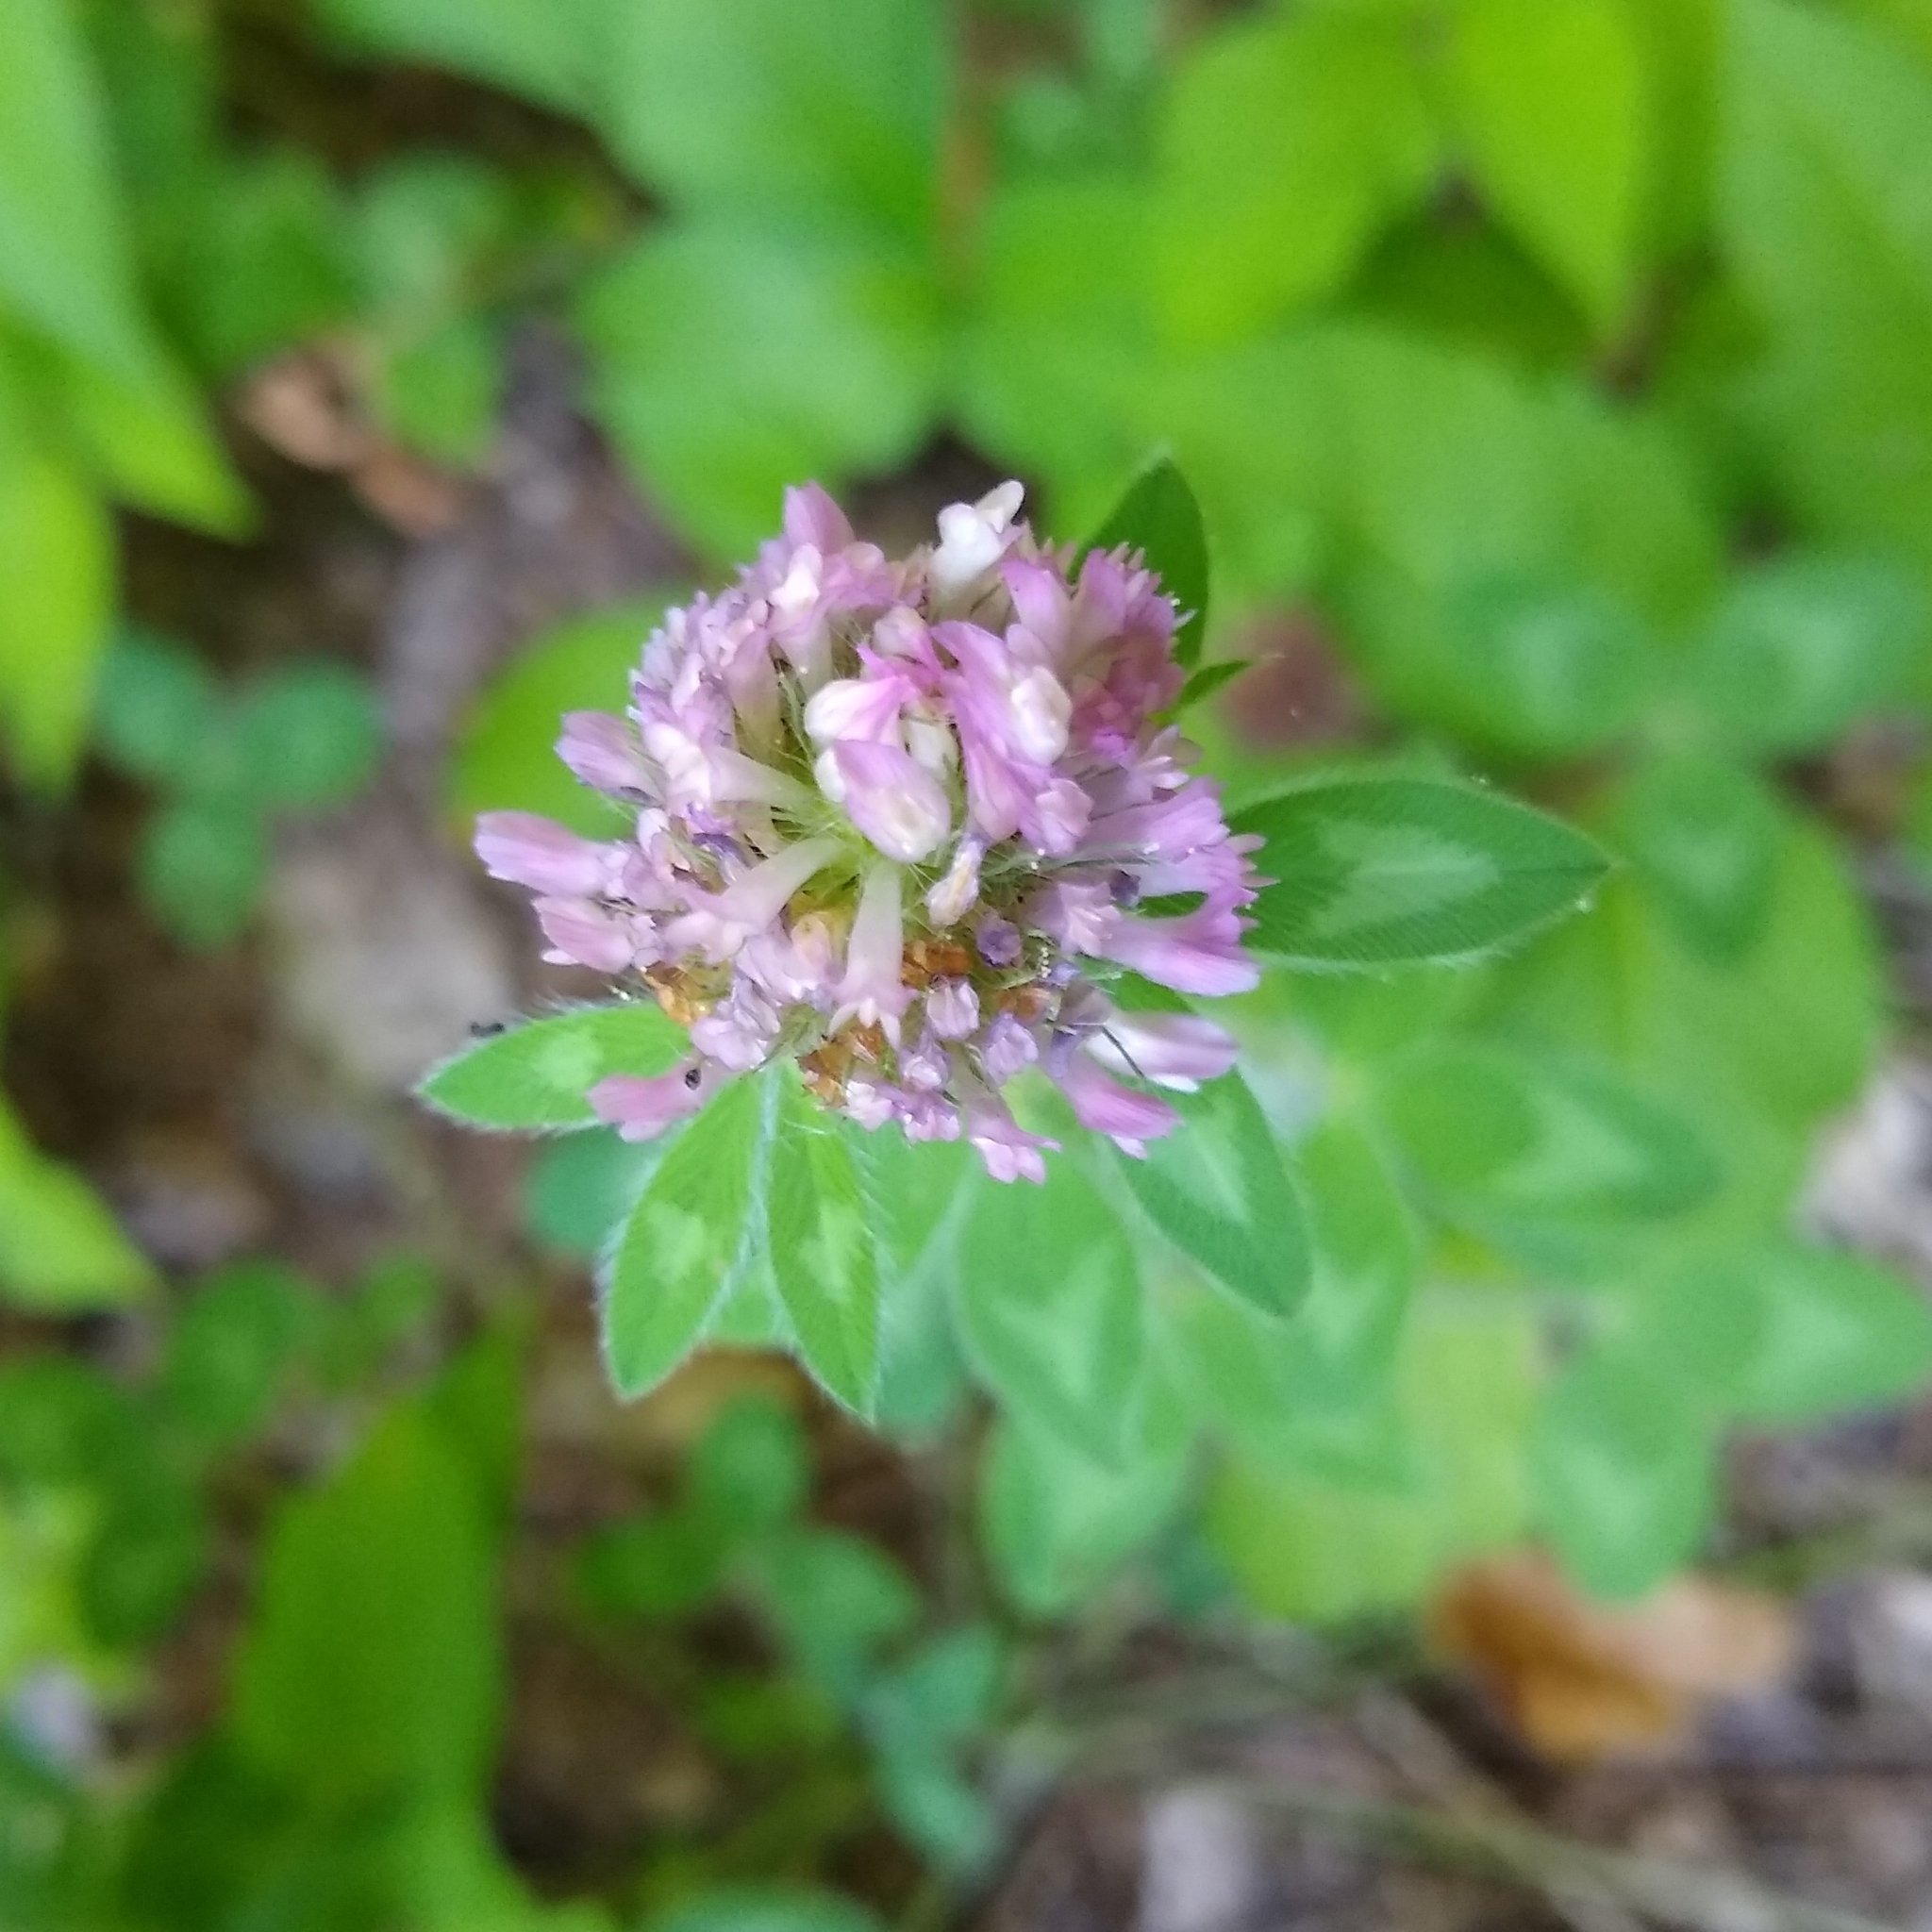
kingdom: Plantae
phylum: Tracheophyta
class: Magnoliopsida
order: Fabales
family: Fabaceae
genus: Trifolium
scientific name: Trifolium pratense
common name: Red clover
